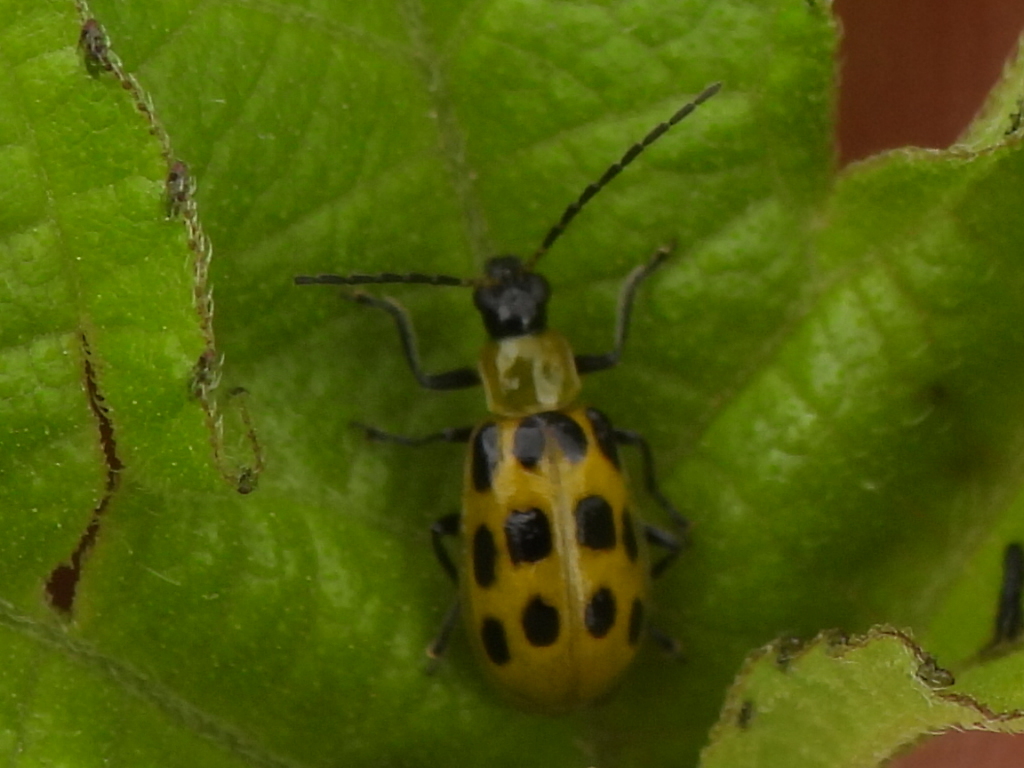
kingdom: Animalia
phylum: Arthropoda
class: Insecta
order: Coleoptera
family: Chrysomelidae
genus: Diabrotica
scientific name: Diabrotica undecimpunctata
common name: Spotted cucumber beetle
